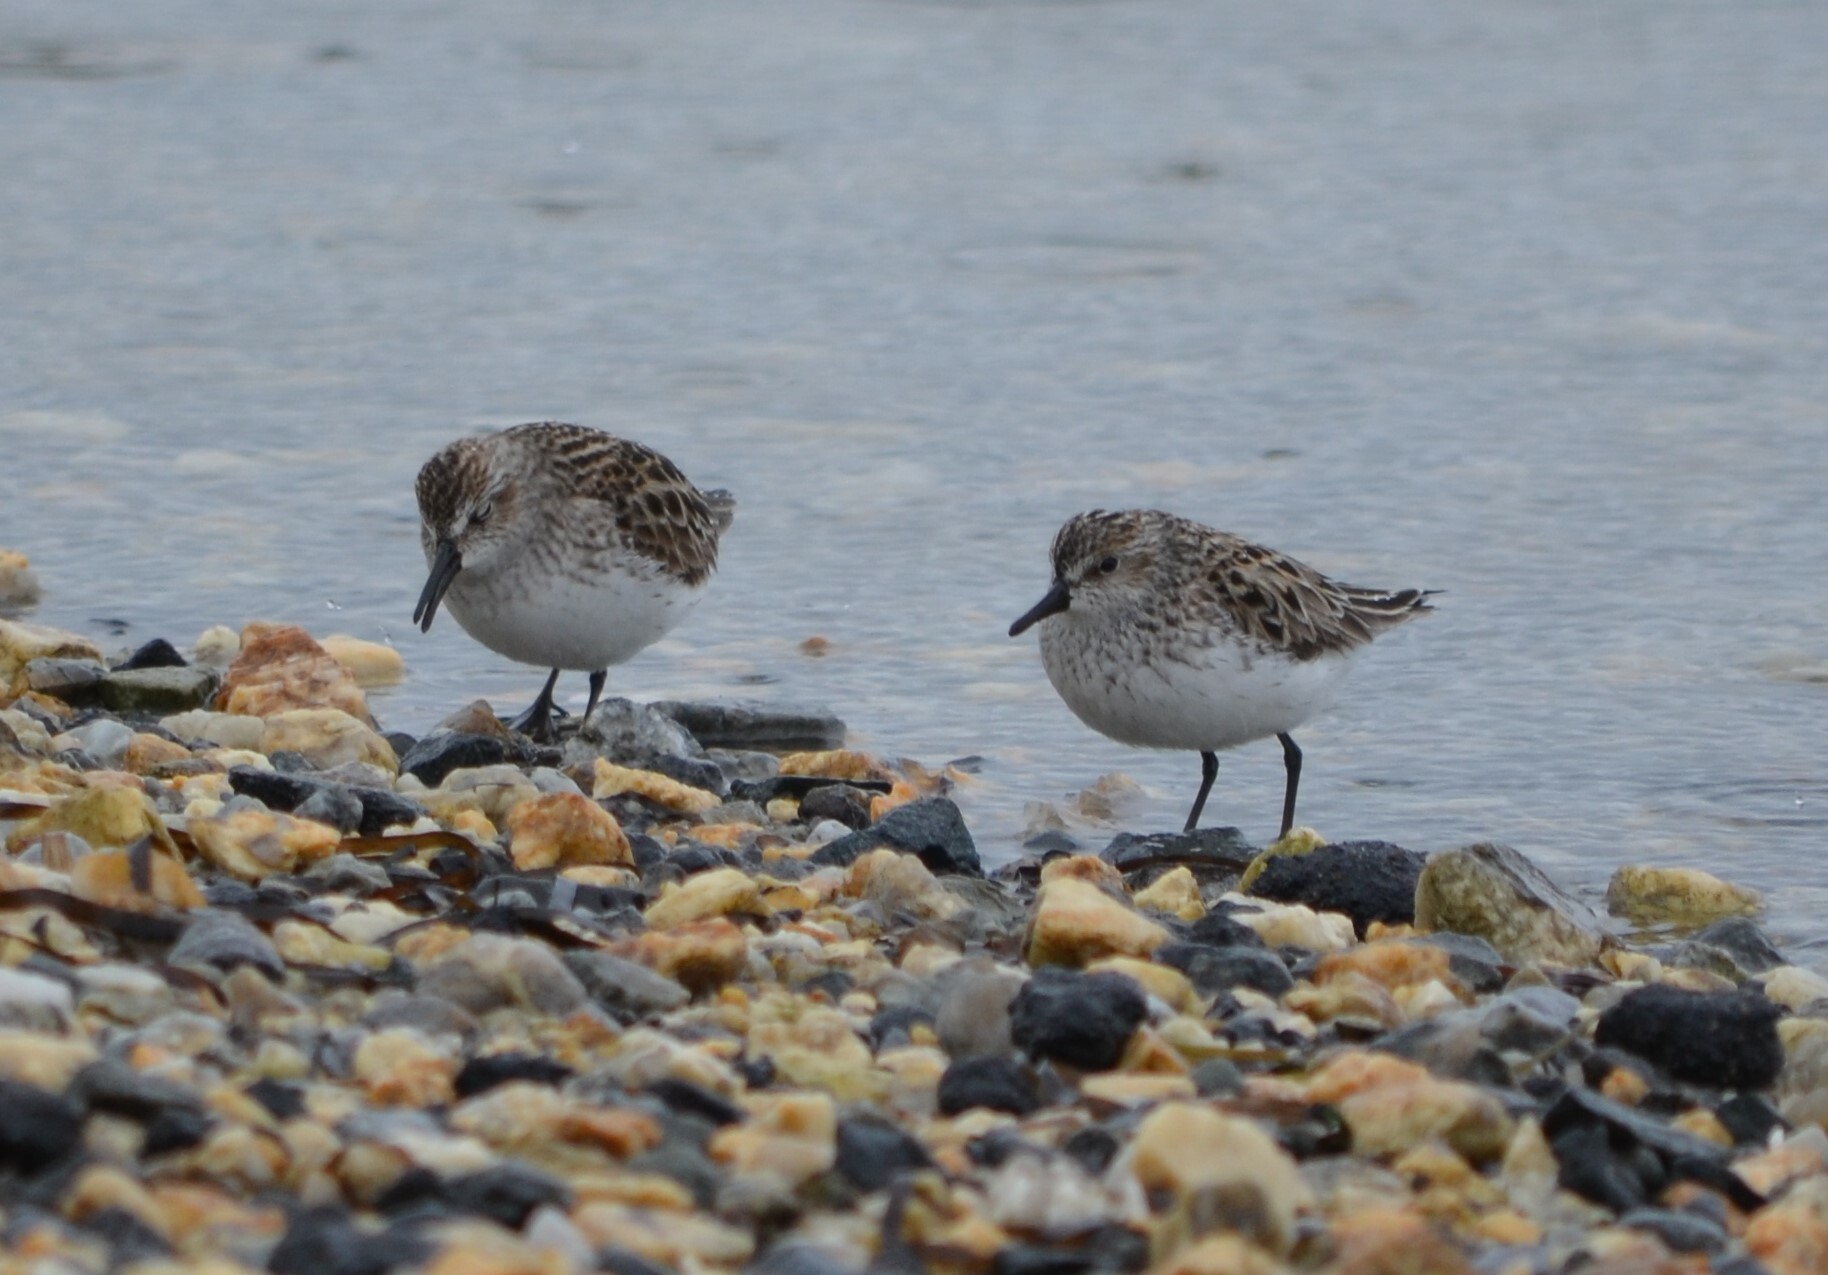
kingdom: Animalia
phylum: Chordata
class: Aves
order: Charadriiformes
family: Scolopacidae
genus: Calidris
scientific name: Calidris pusilla
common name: Semipalmated sandpiper
